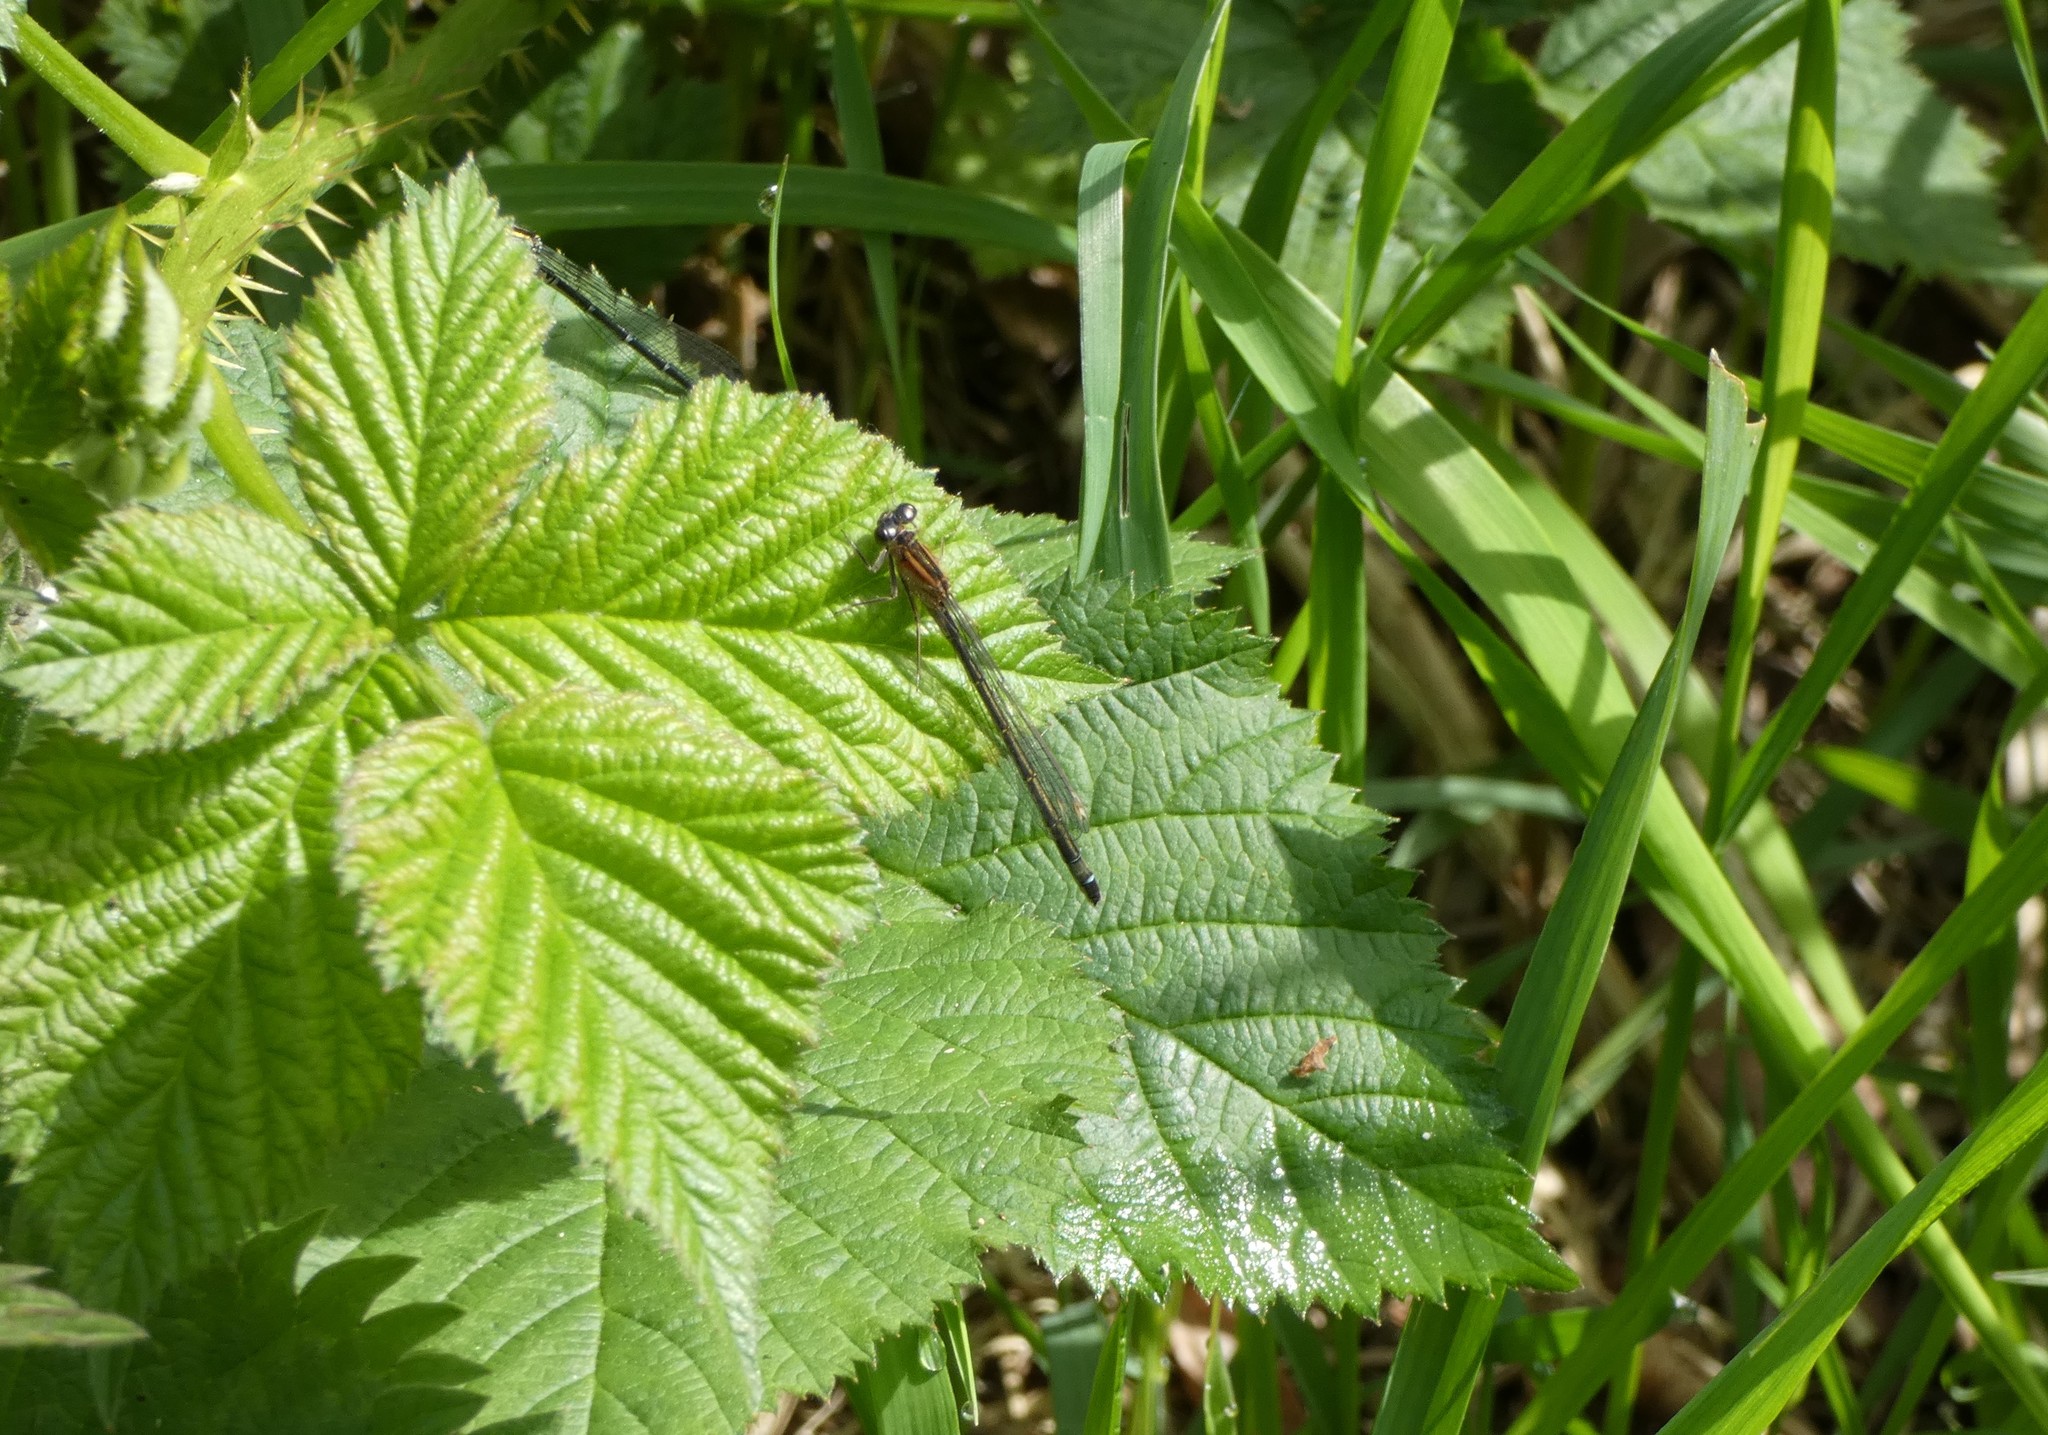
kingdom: Animalia
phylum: Arthropoda
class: Insecta
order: Odonata
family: Coenagrionidae
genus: Ischnura
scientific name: Ischnura elegans
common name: Blue-tailed damselfly
